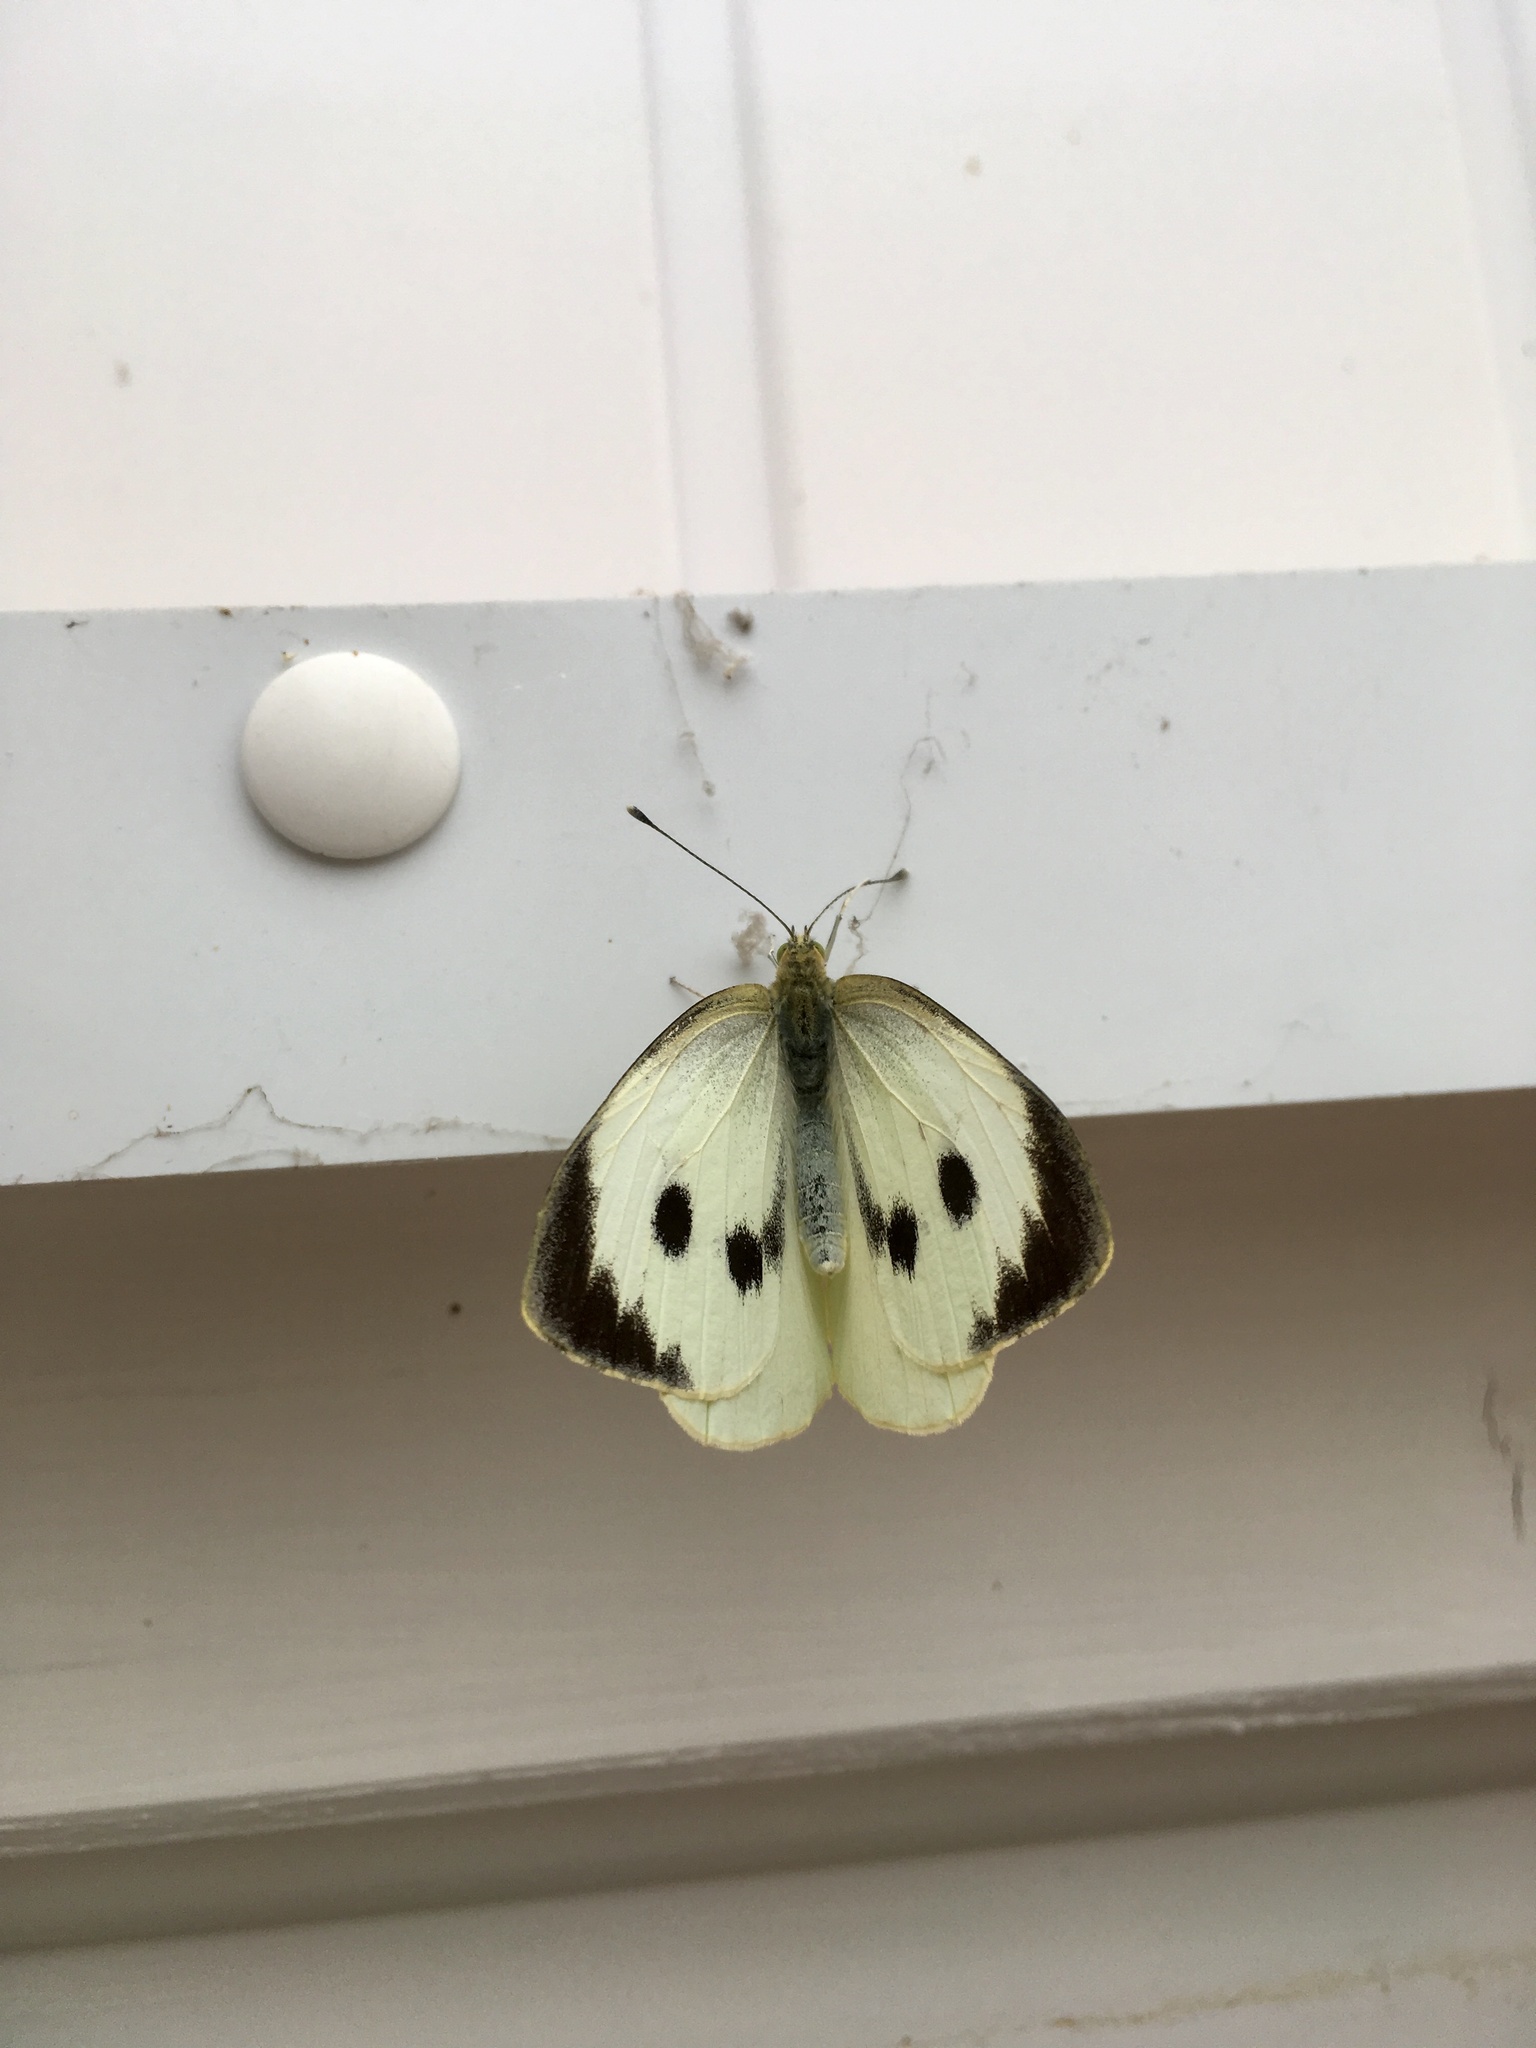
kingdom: Animalia
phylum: Arthropoda
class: Insecta
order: Lepidoptera
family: Pieridae
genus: Pieris
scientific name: Pieris brassicae
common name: Large white
